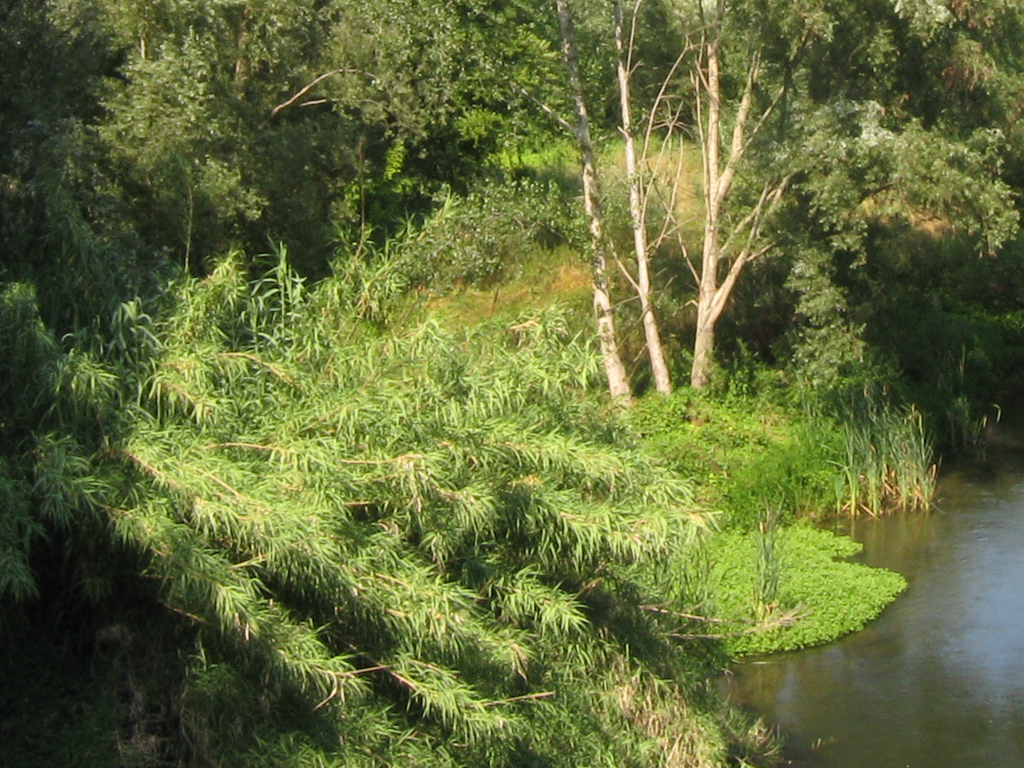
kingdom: Plantae
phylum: Tracheophyta
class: Liliopsida
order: Poales
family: Poaceae
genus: Arundo
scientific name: Arundo donax
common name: Giant reed
